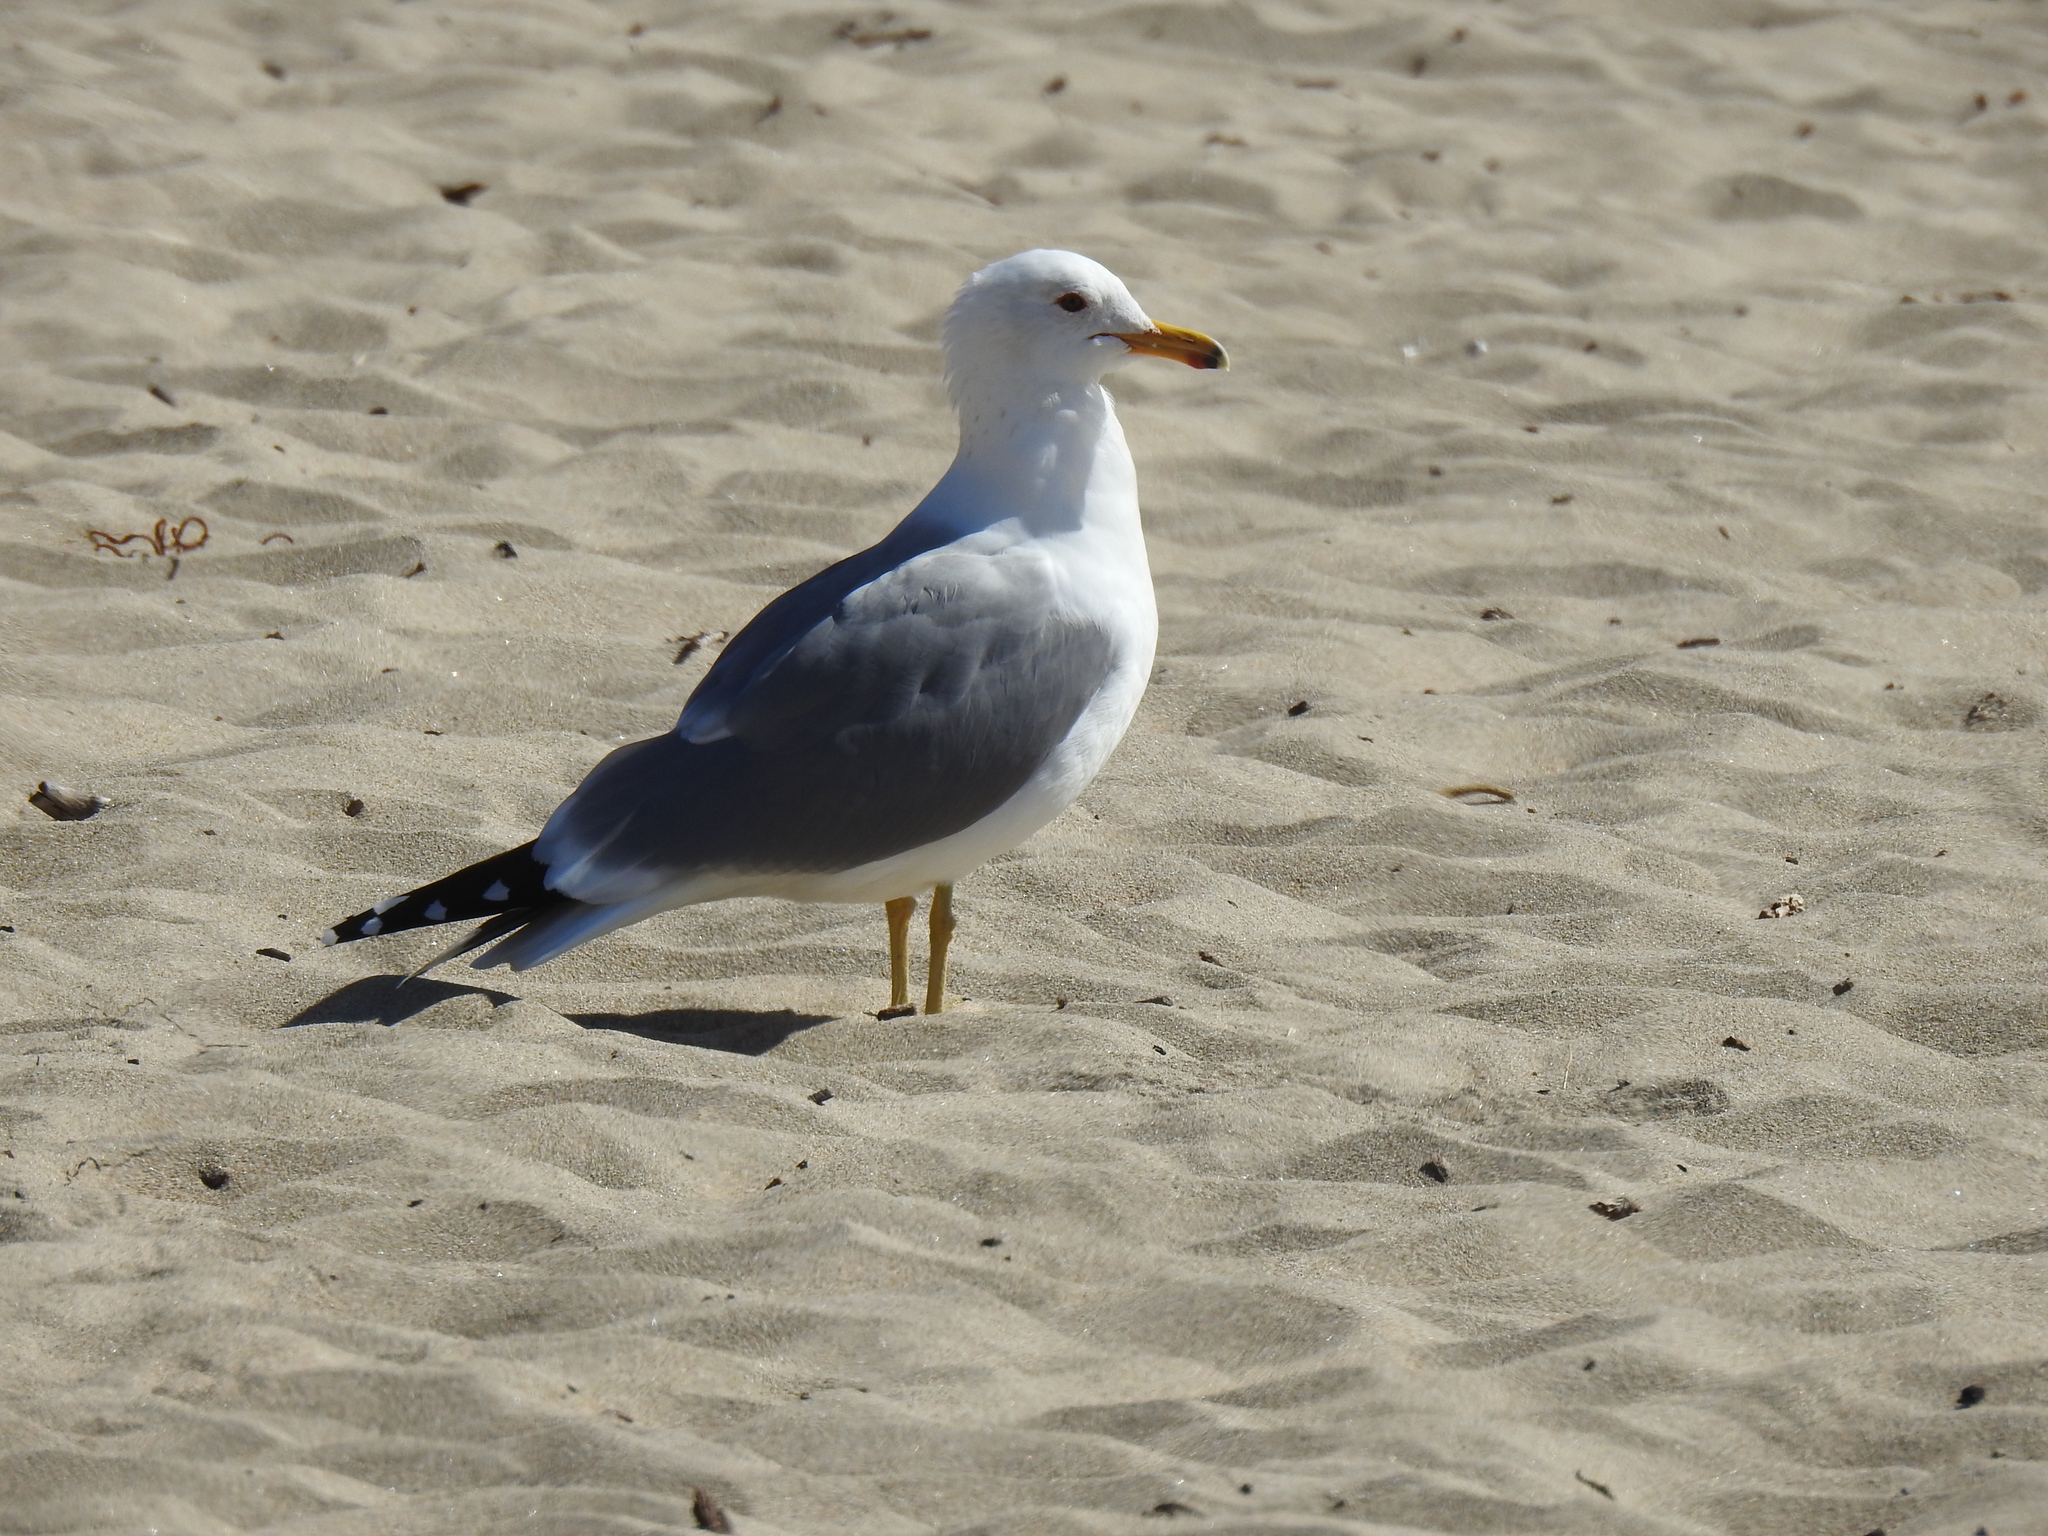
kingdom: Animalia
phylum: Chordata
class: Aves
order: Charadriiformes
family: Laridae
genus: Larus
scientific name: Larus californicus
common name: California gull
